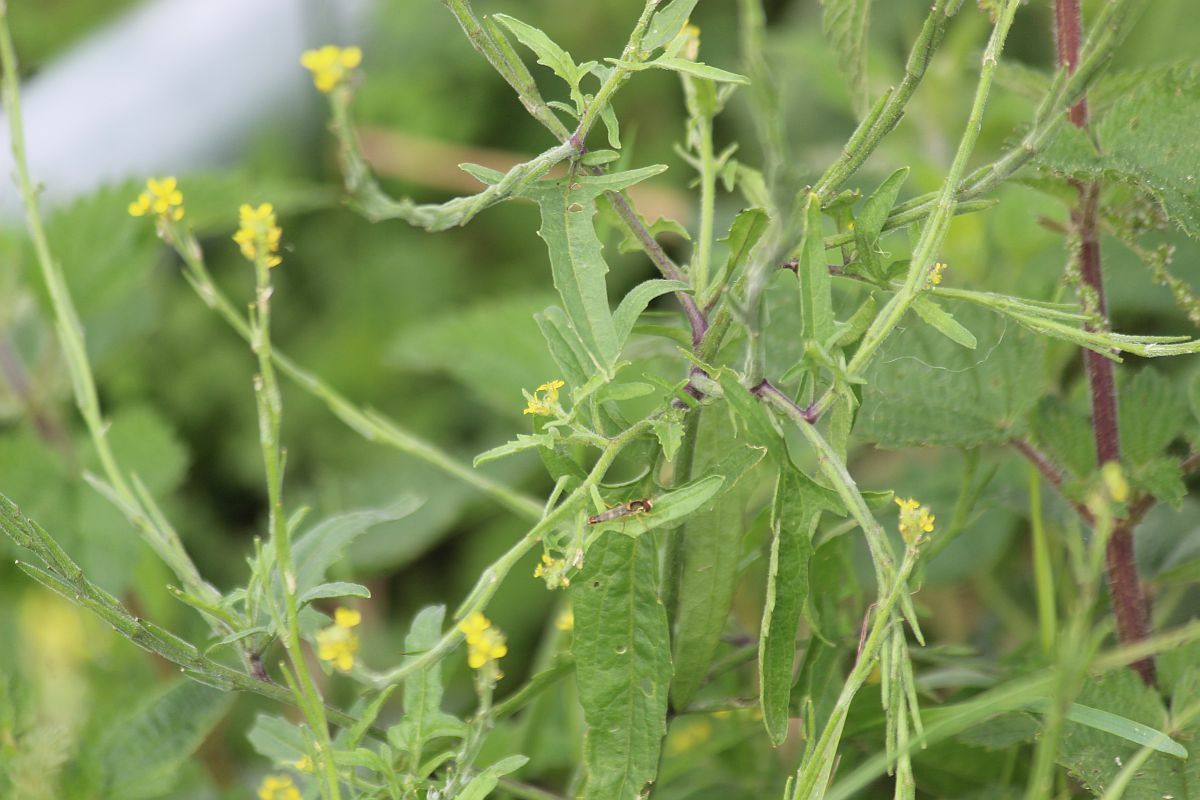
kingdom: Plantae
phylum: Tracheophyta
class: Magnoliopsida
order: Brassicales
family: Brassicaceae
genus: Sisymbrium
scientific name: Sisymbrium officinale
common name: Hedge mustard
